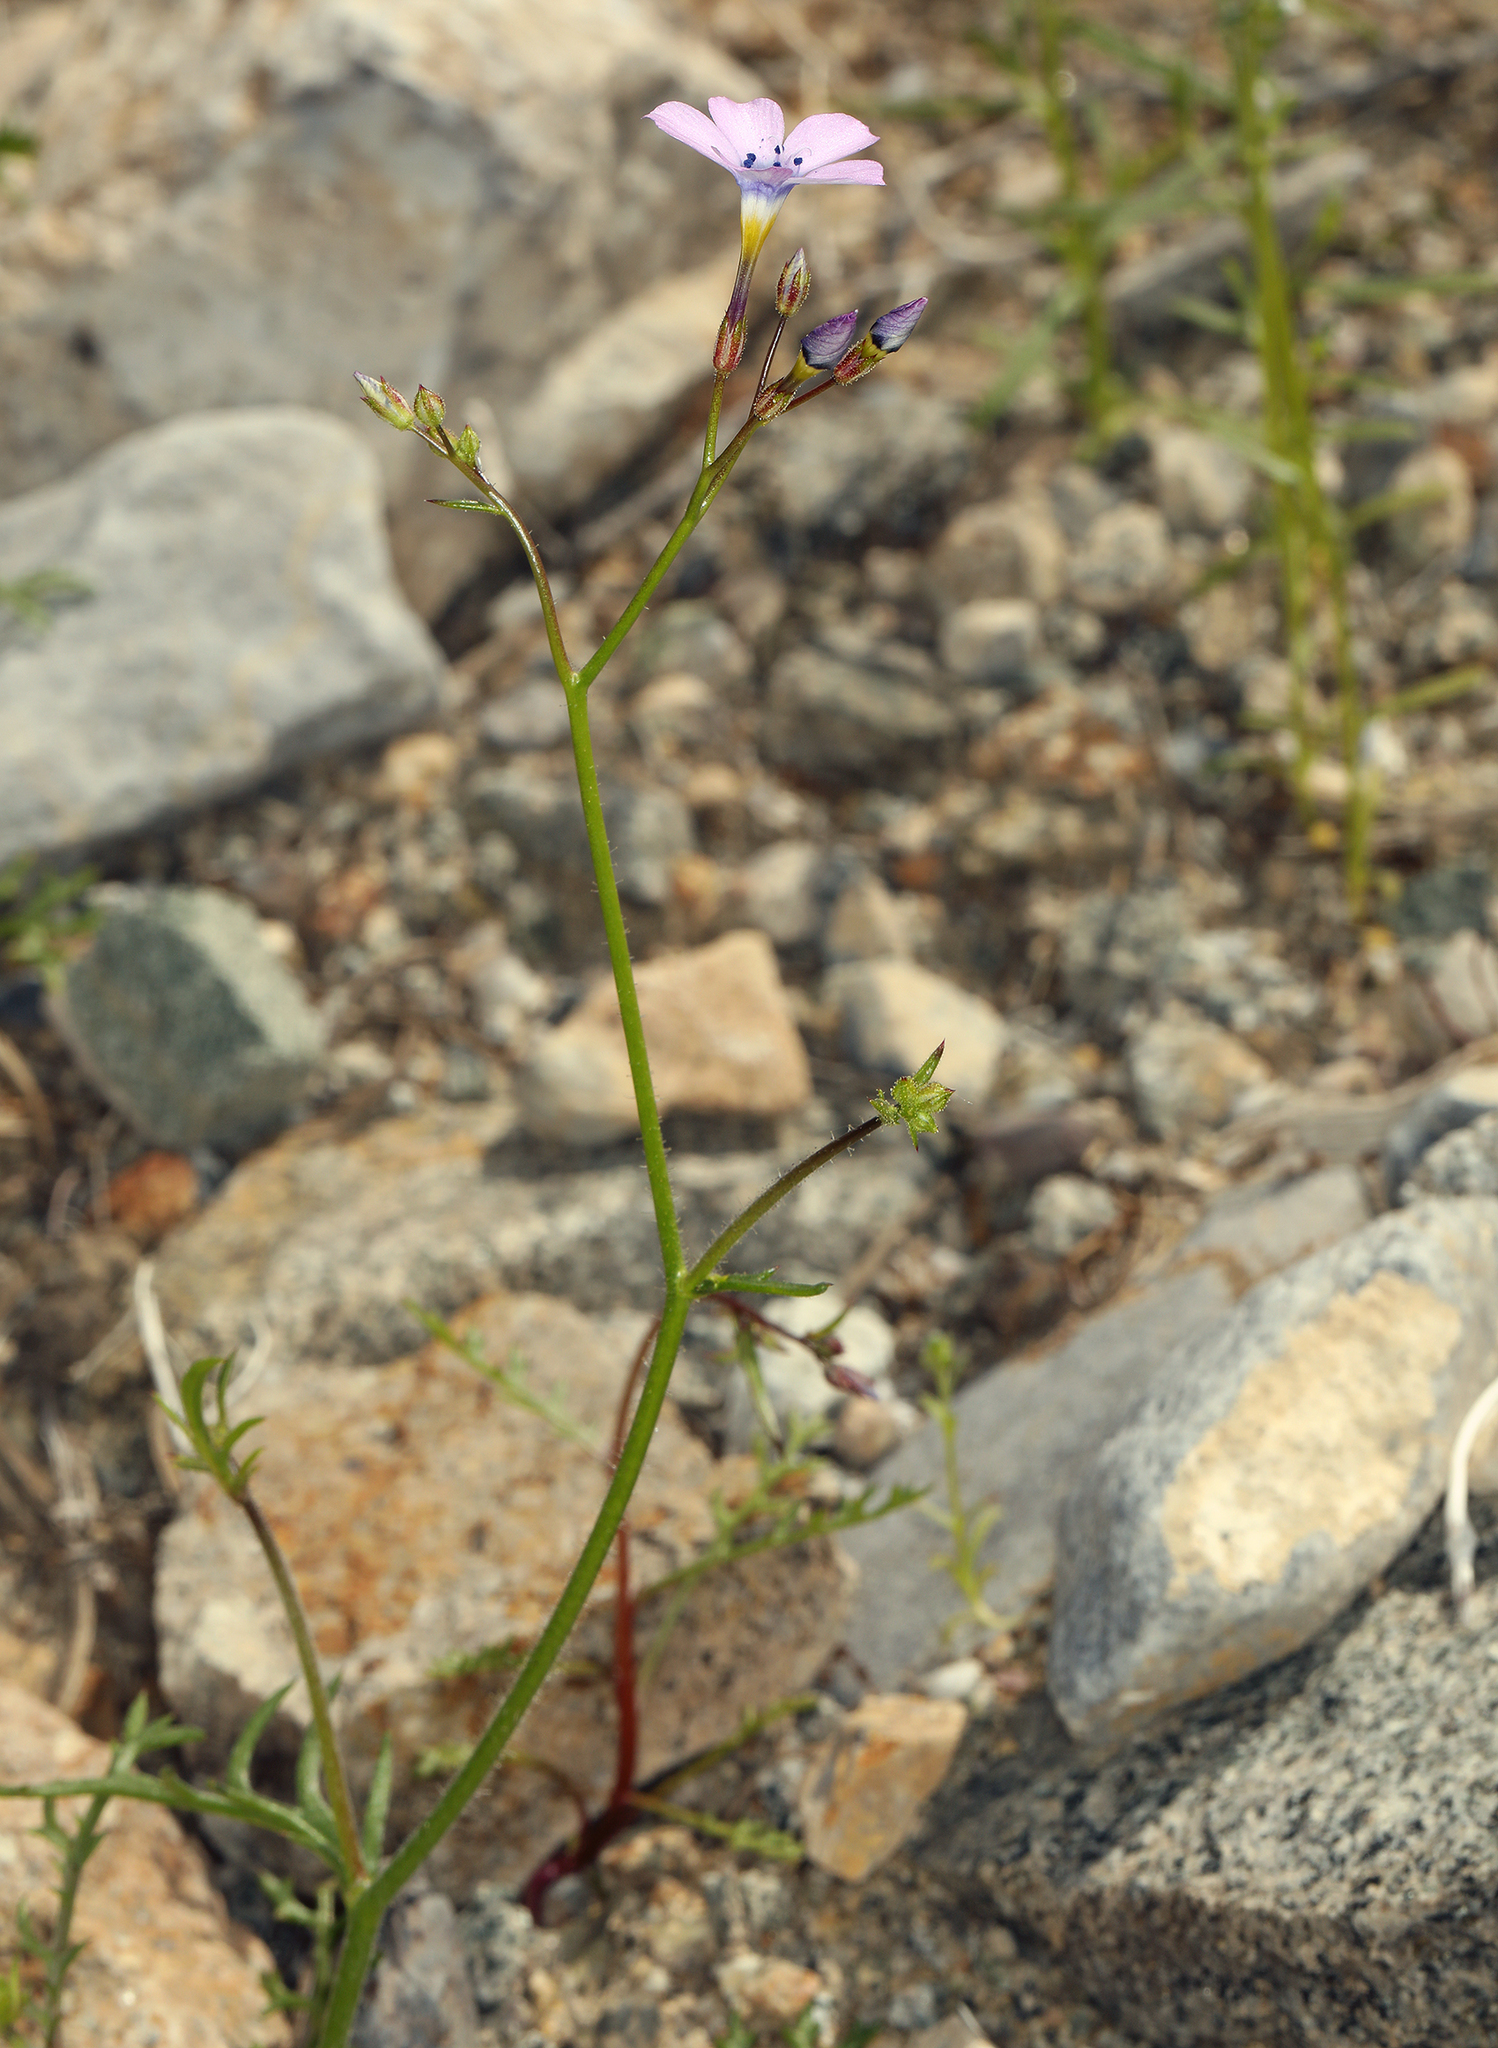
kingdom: Plantae
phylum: Tracheophyta
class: Magnoliopsida
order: Ericales
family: Polemoniaceae
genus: Gilia
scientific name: Gilia cana
